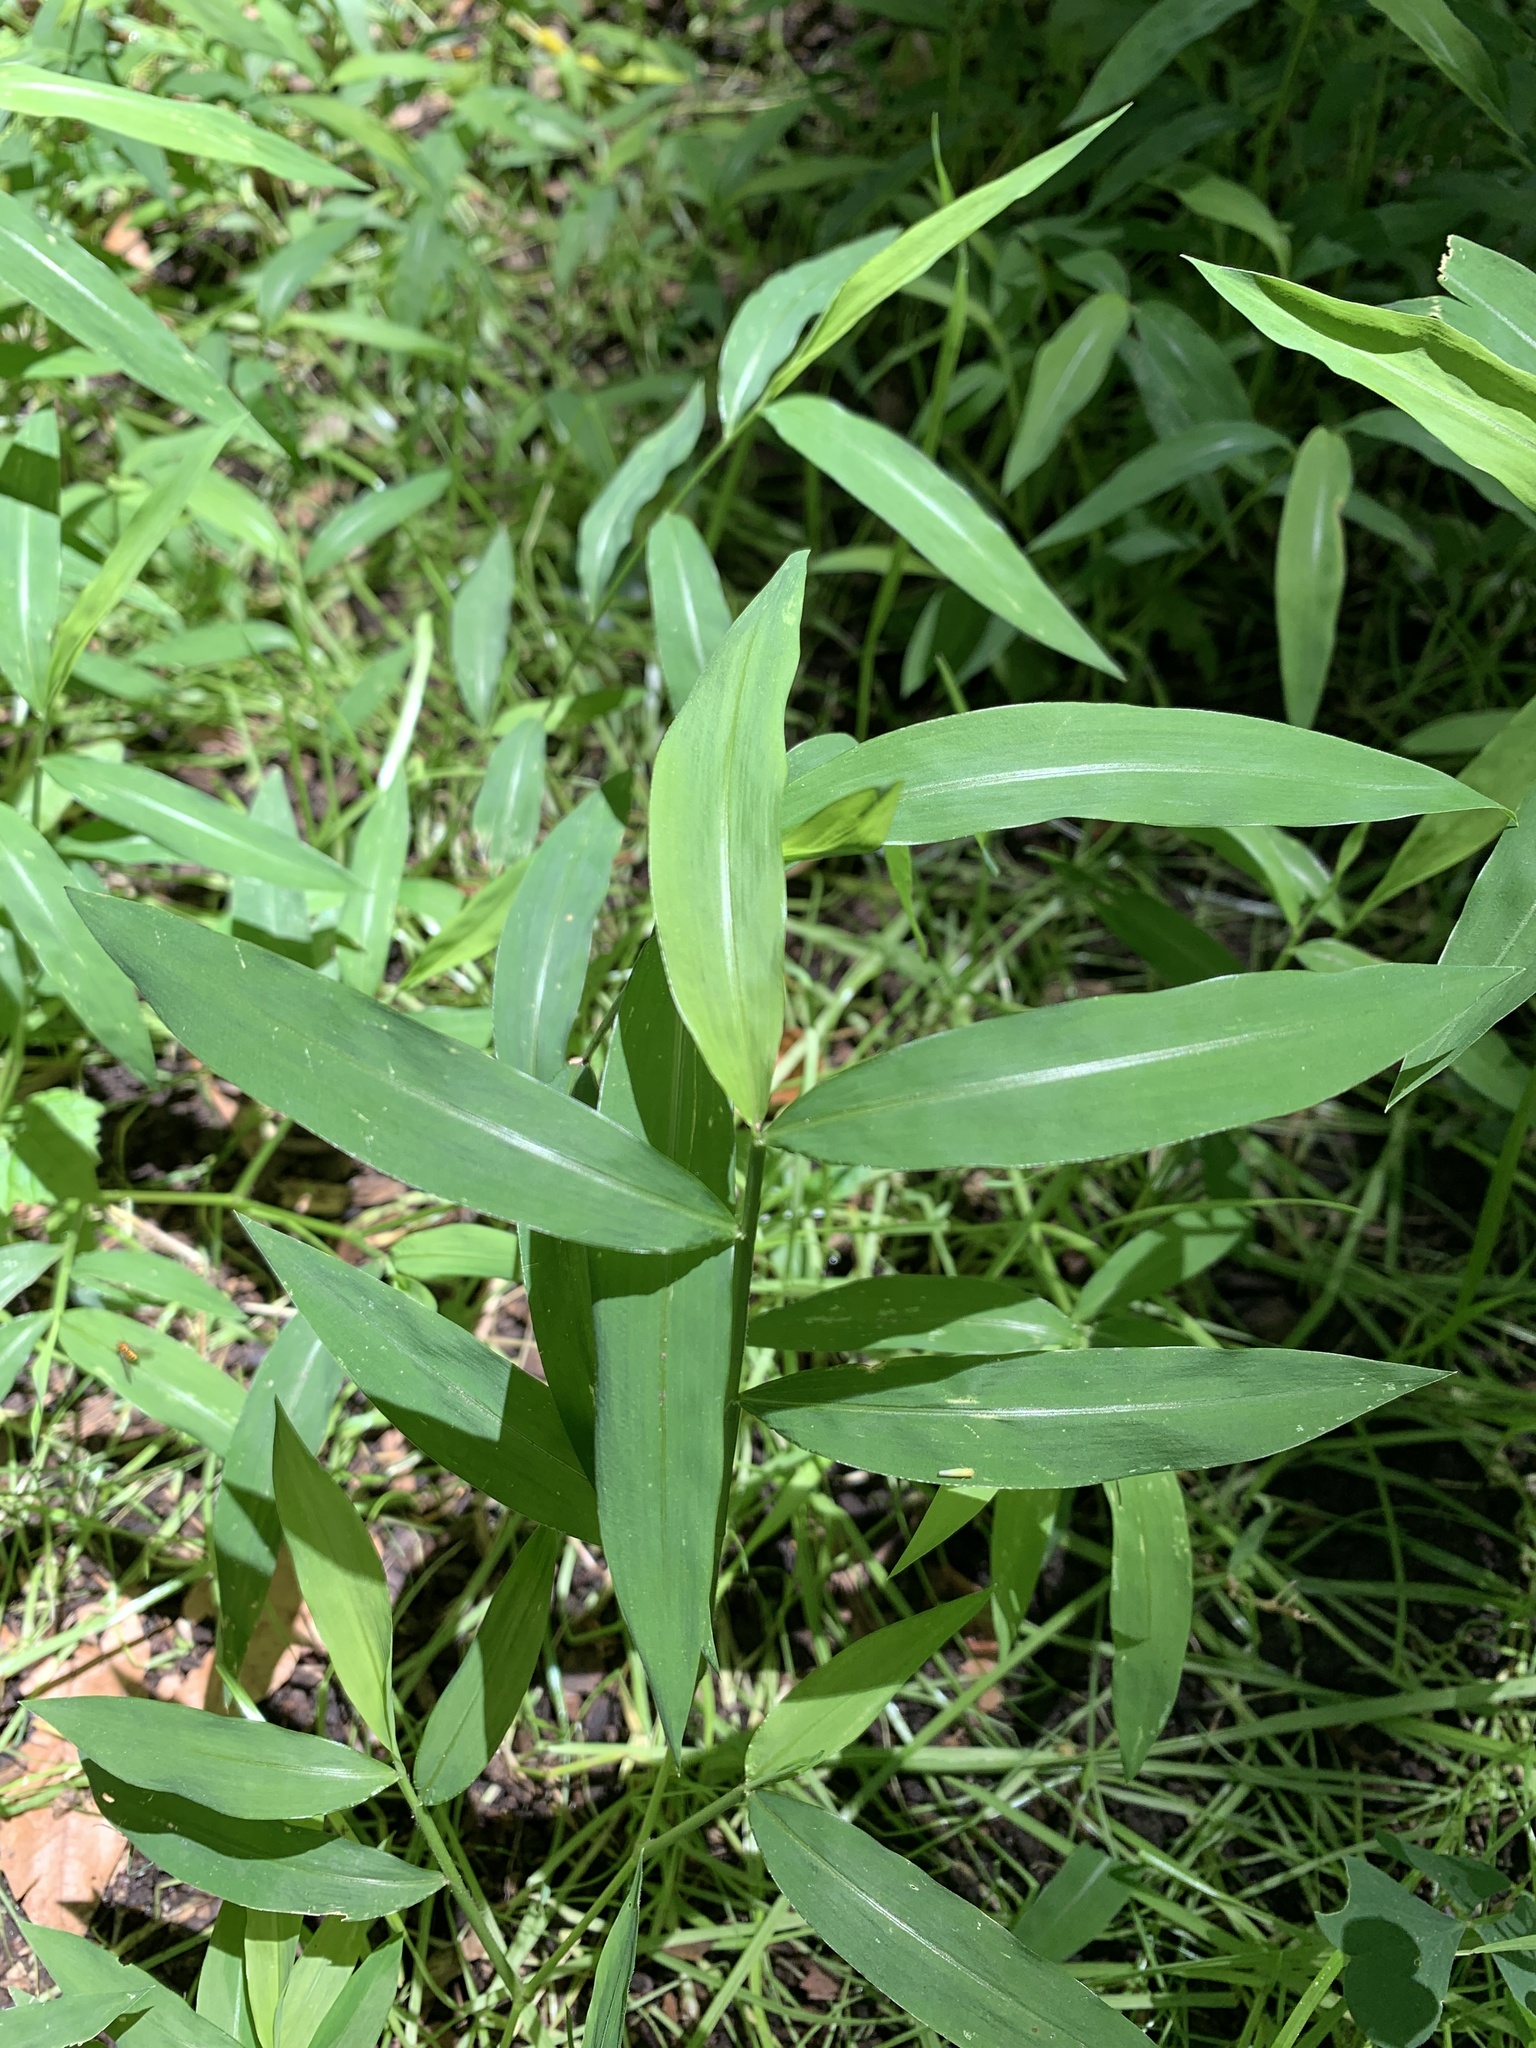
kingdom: Plantae
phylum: Tracheophyta
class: Liliopsida
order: Poales
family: Poaceae
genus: Microstegium
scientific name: Microstegium vimineum
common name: Japanese stiltgrass
